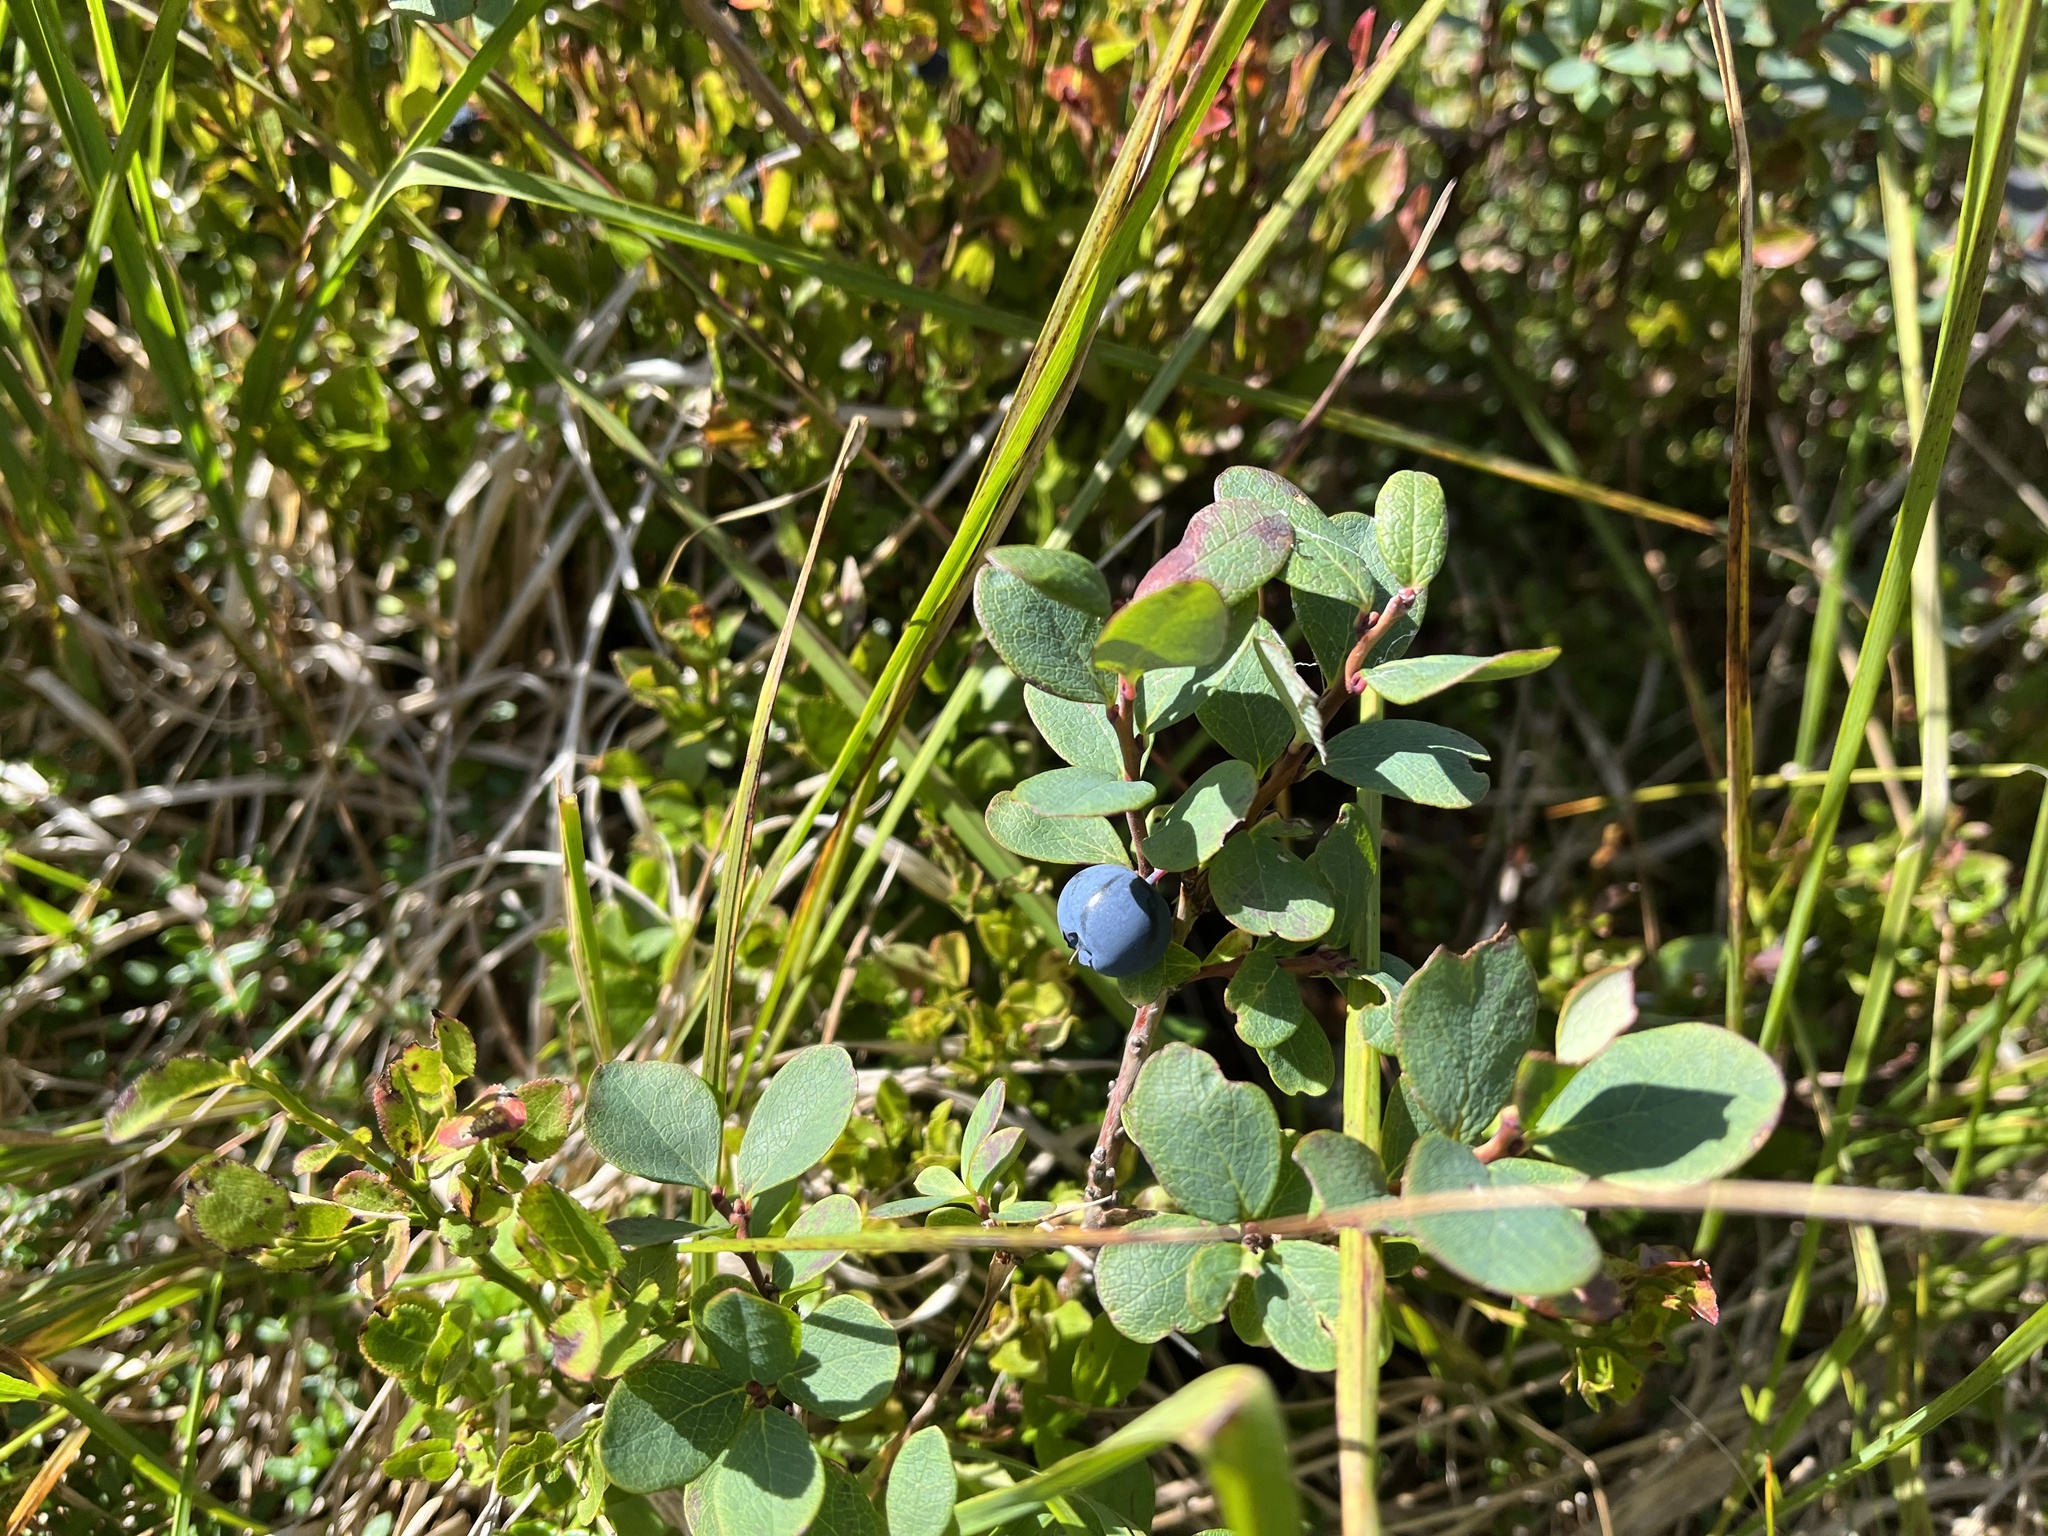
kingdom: Plantae
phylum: Tracheophyta
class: Magnoliopsida
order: Ericales
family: Ericaceae
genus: Vaccinium
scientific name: Vaccinium uliginosum
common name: Bog bilberry
